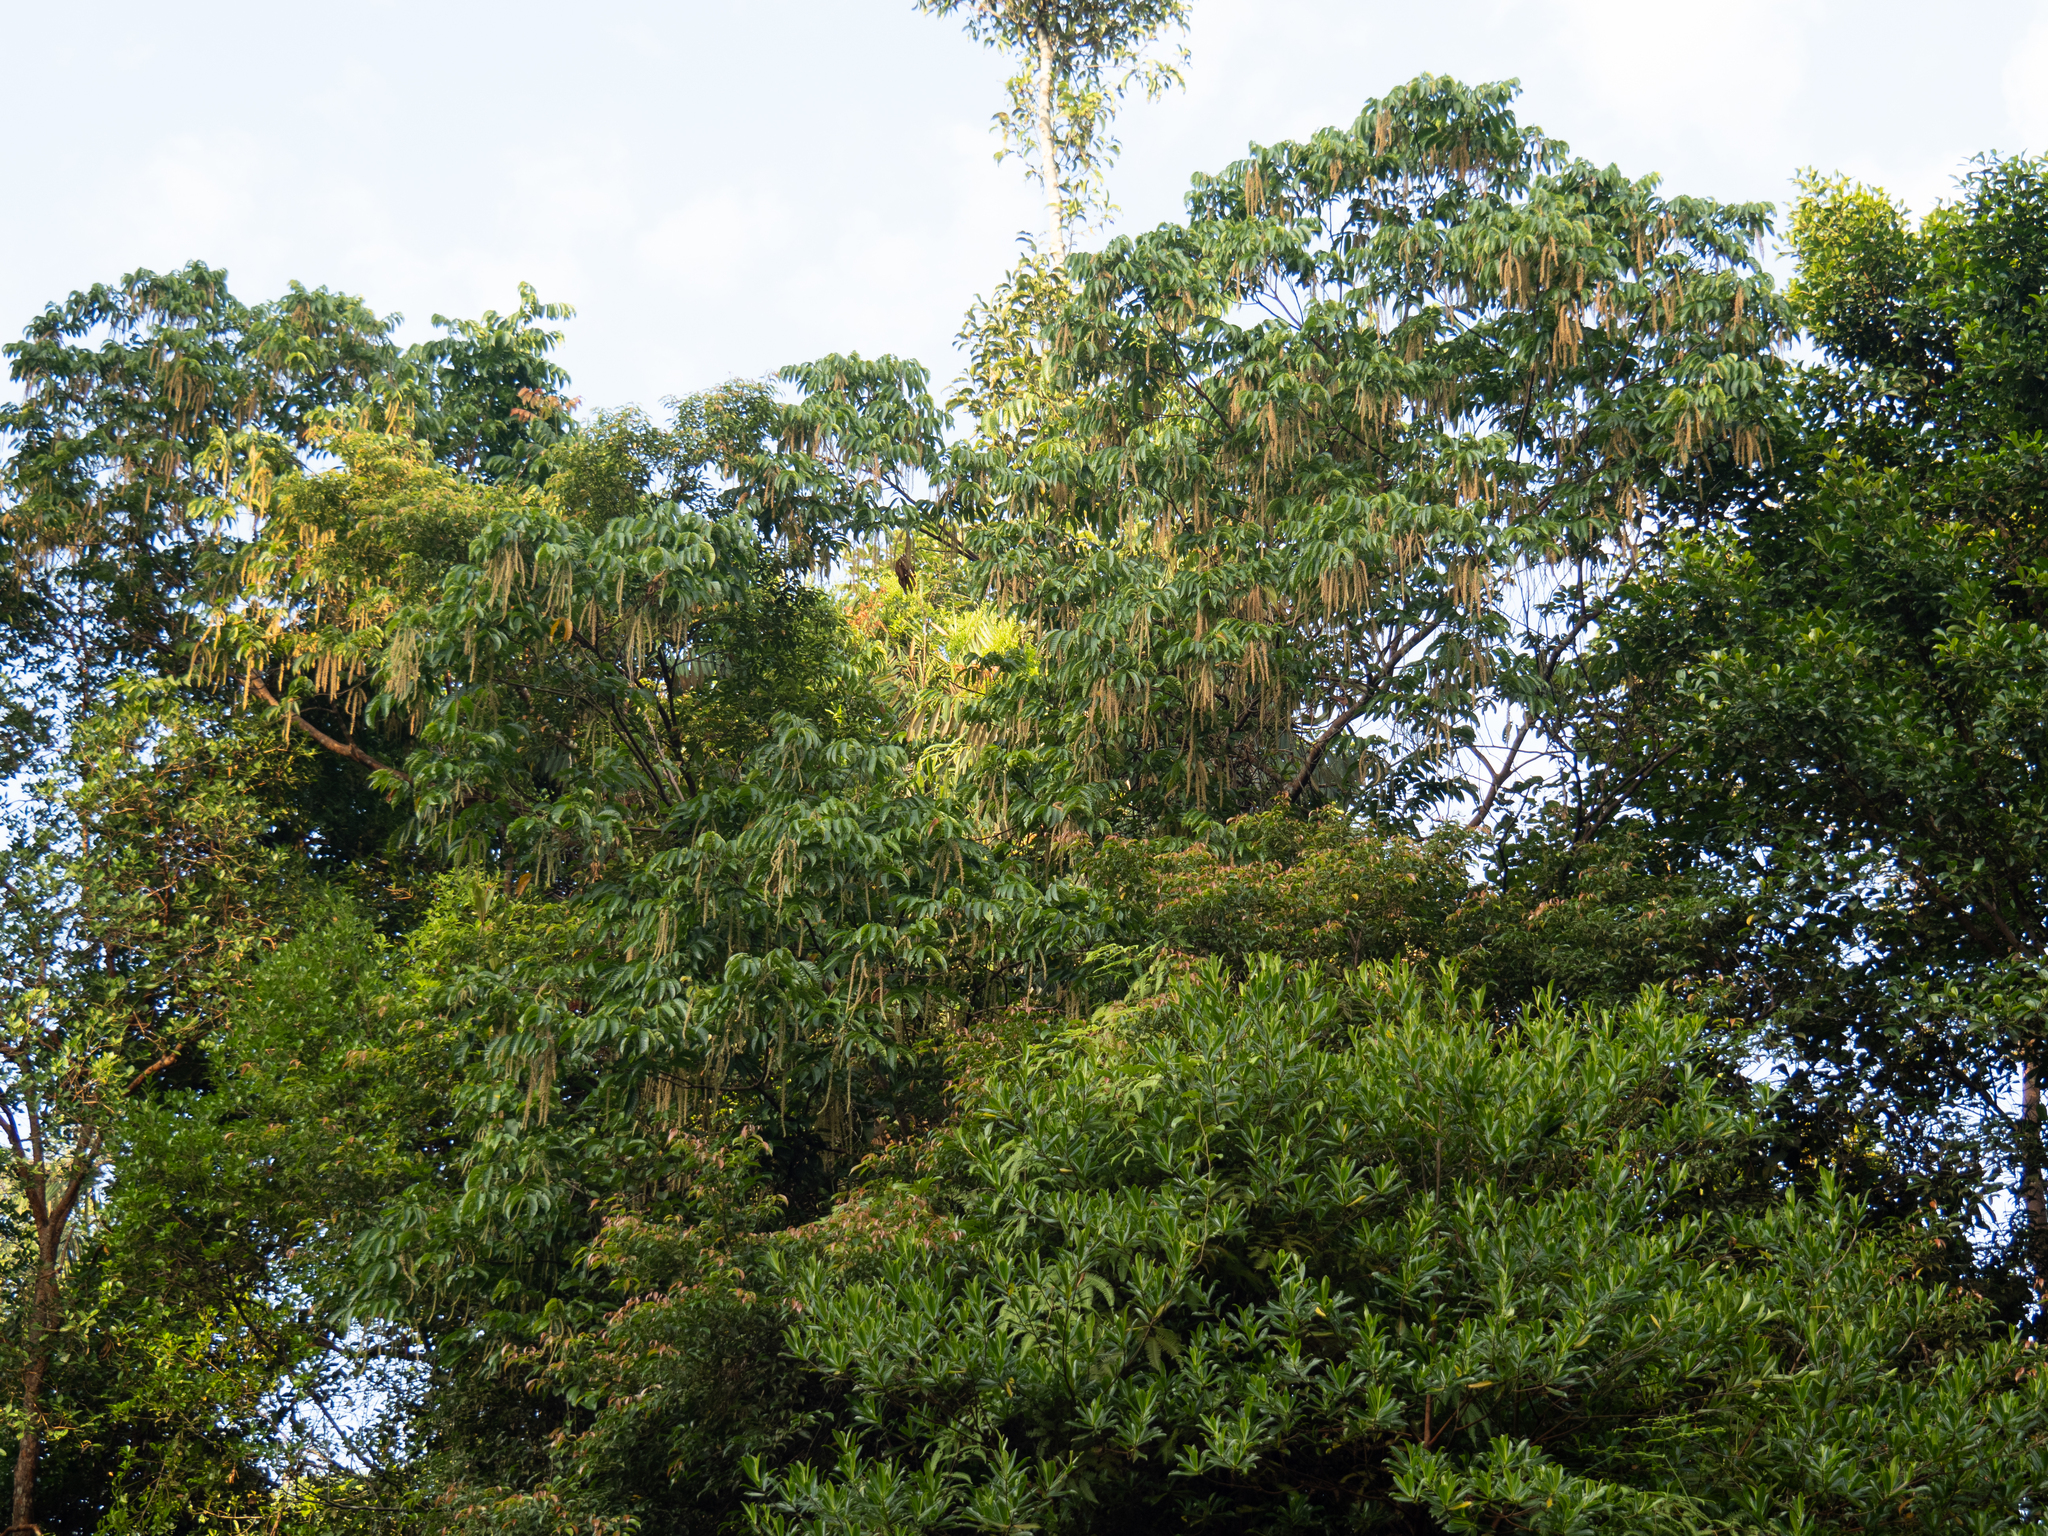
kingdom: Plantae
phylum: Tracheophyta
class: Magnoliopsida
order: Sapindales
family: Sapindaceae
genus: Pometia
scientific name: Pometia pinnata
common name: Oceanic lychee
